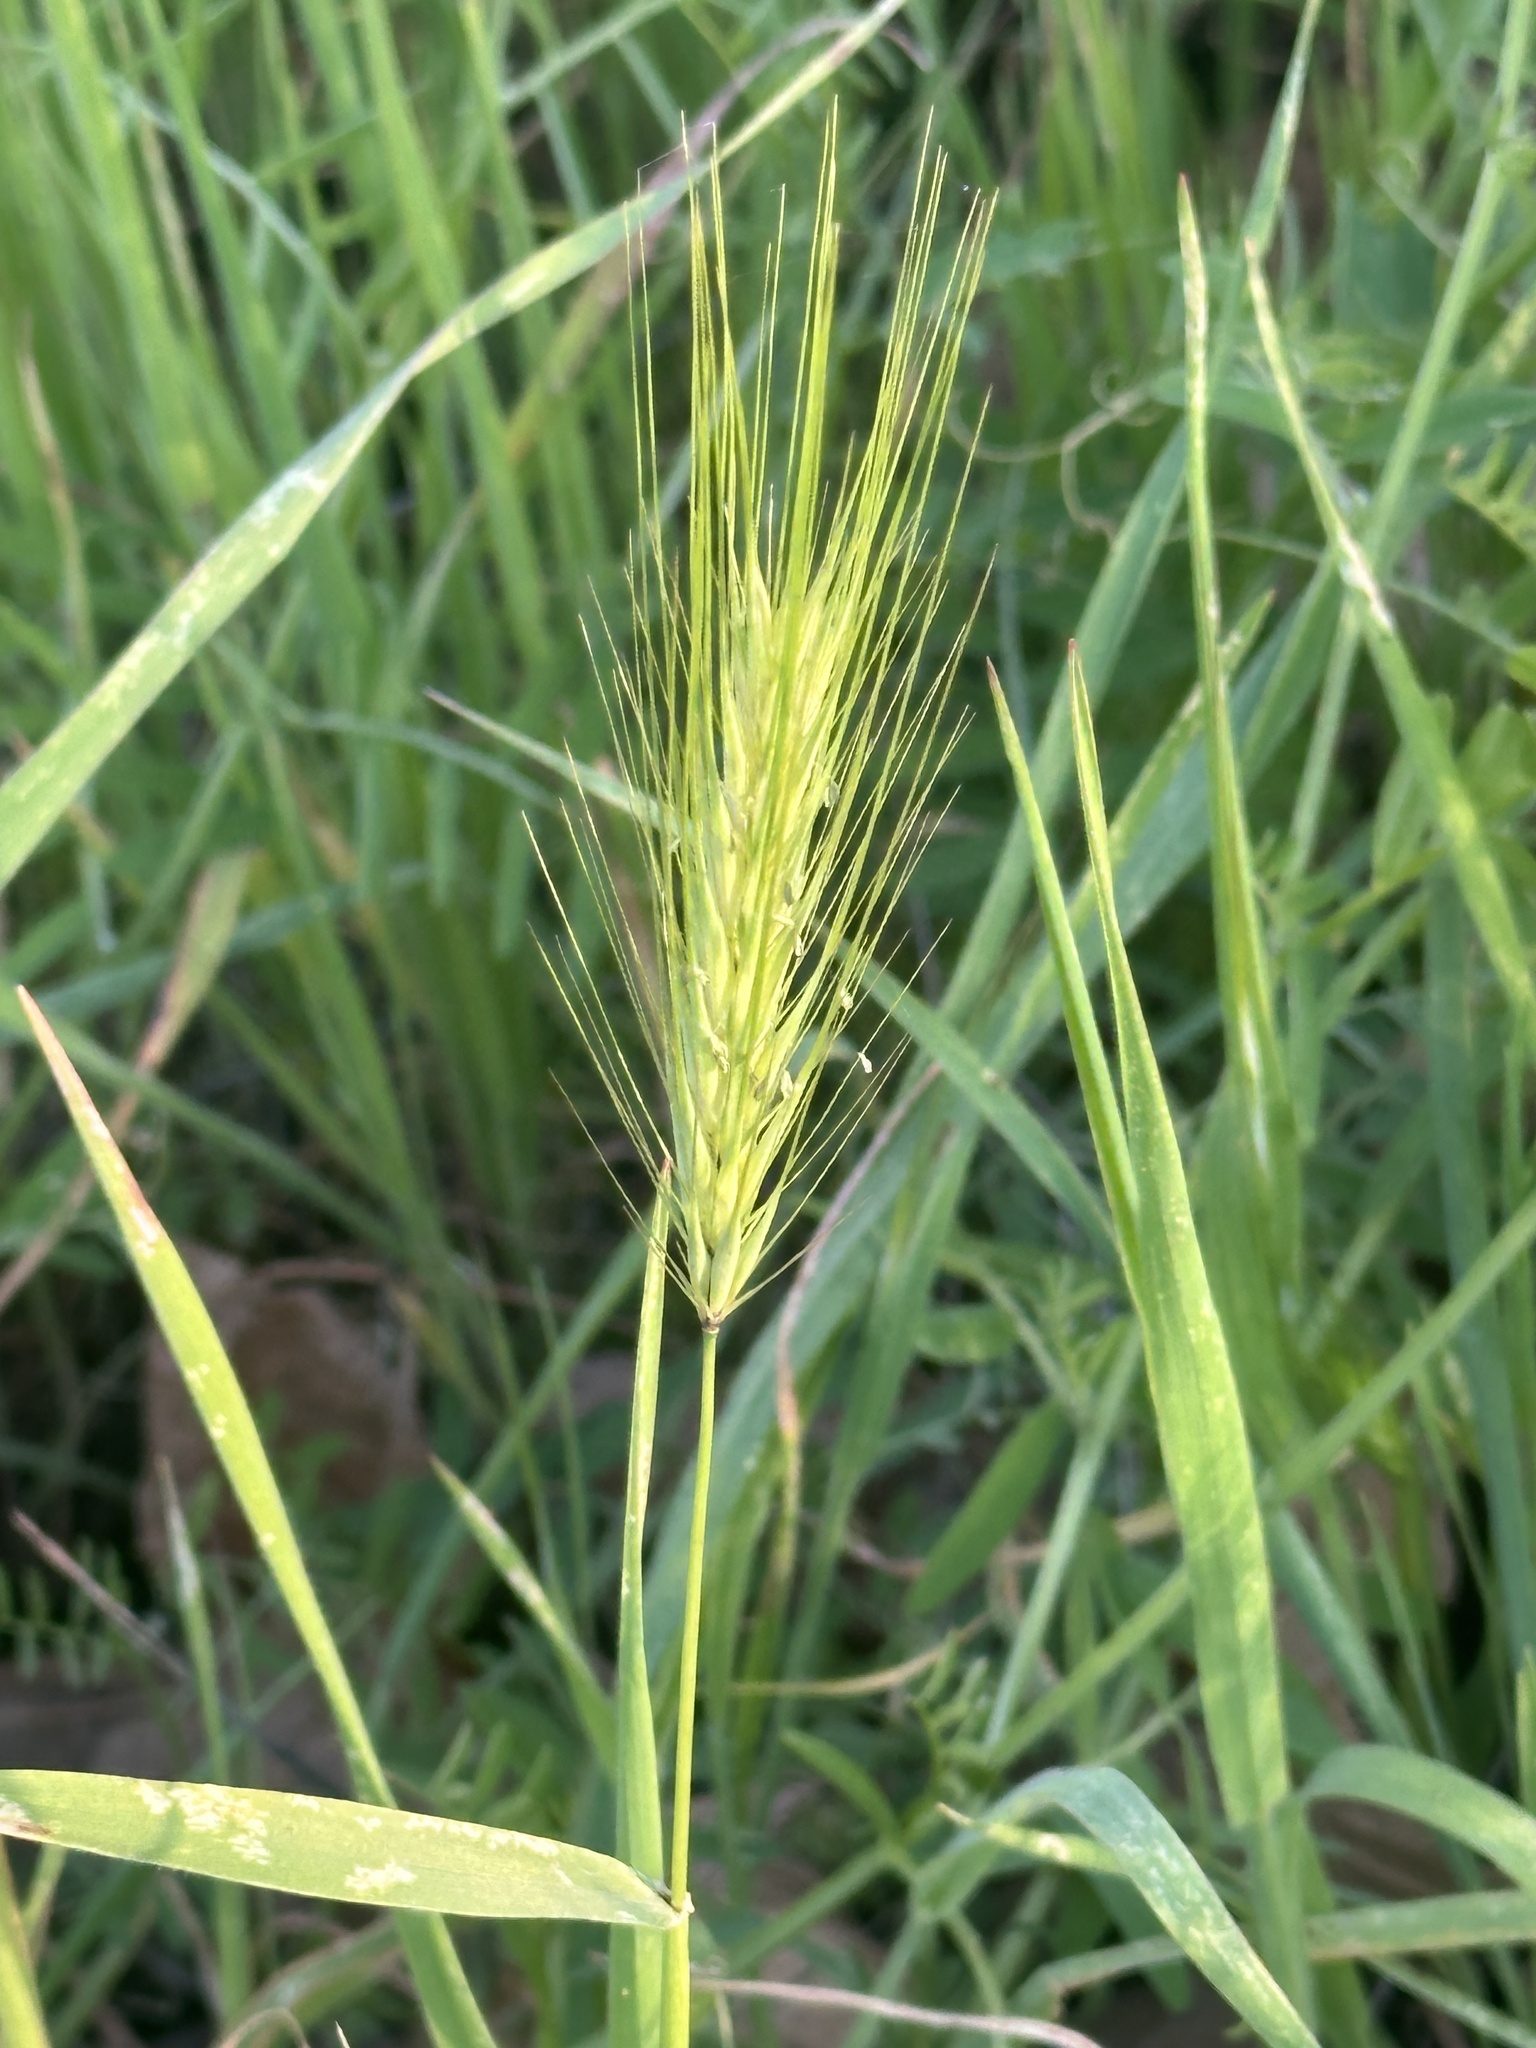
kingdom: Plantae
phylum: Tracheophyta
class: Liliopsida
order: Poales
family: Poaceae
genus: Hordeum
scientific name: Hordeum murinum
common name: Wall barley
